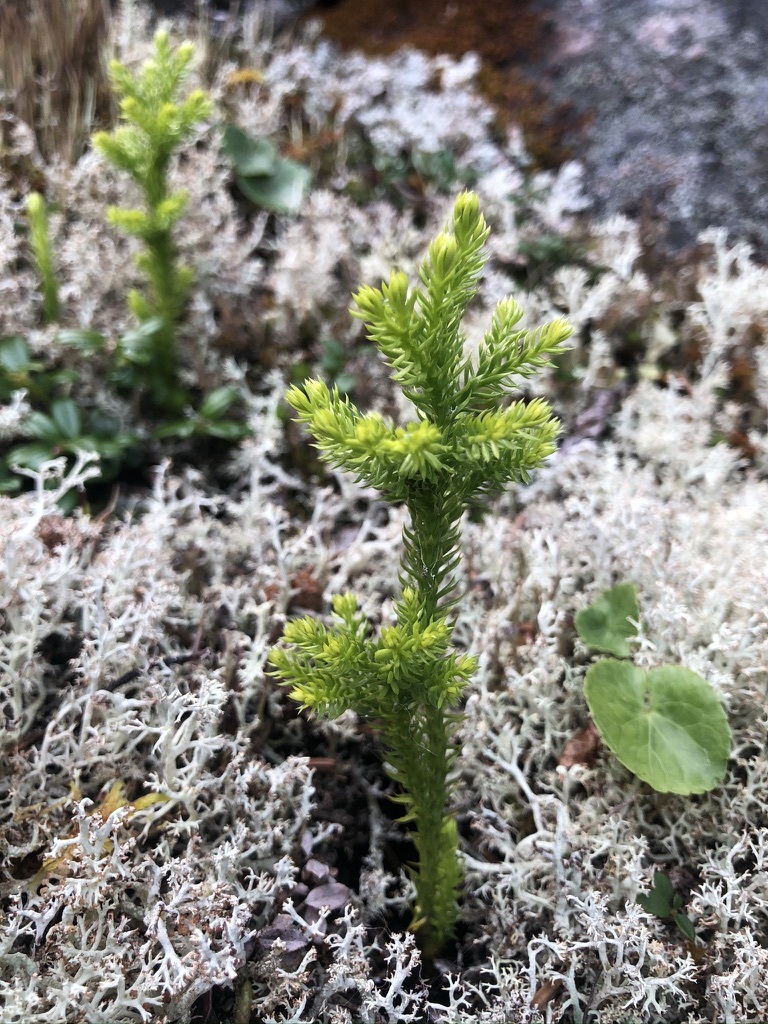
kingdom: Plantae
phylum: Tracheophyta
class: Lycopodiopsida
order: Lycopodiales
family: Lycopodiaceae
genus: Dendrolycopodium
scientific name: Dendrolycopodium dendroideum
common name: Northern tree-clubmoss
